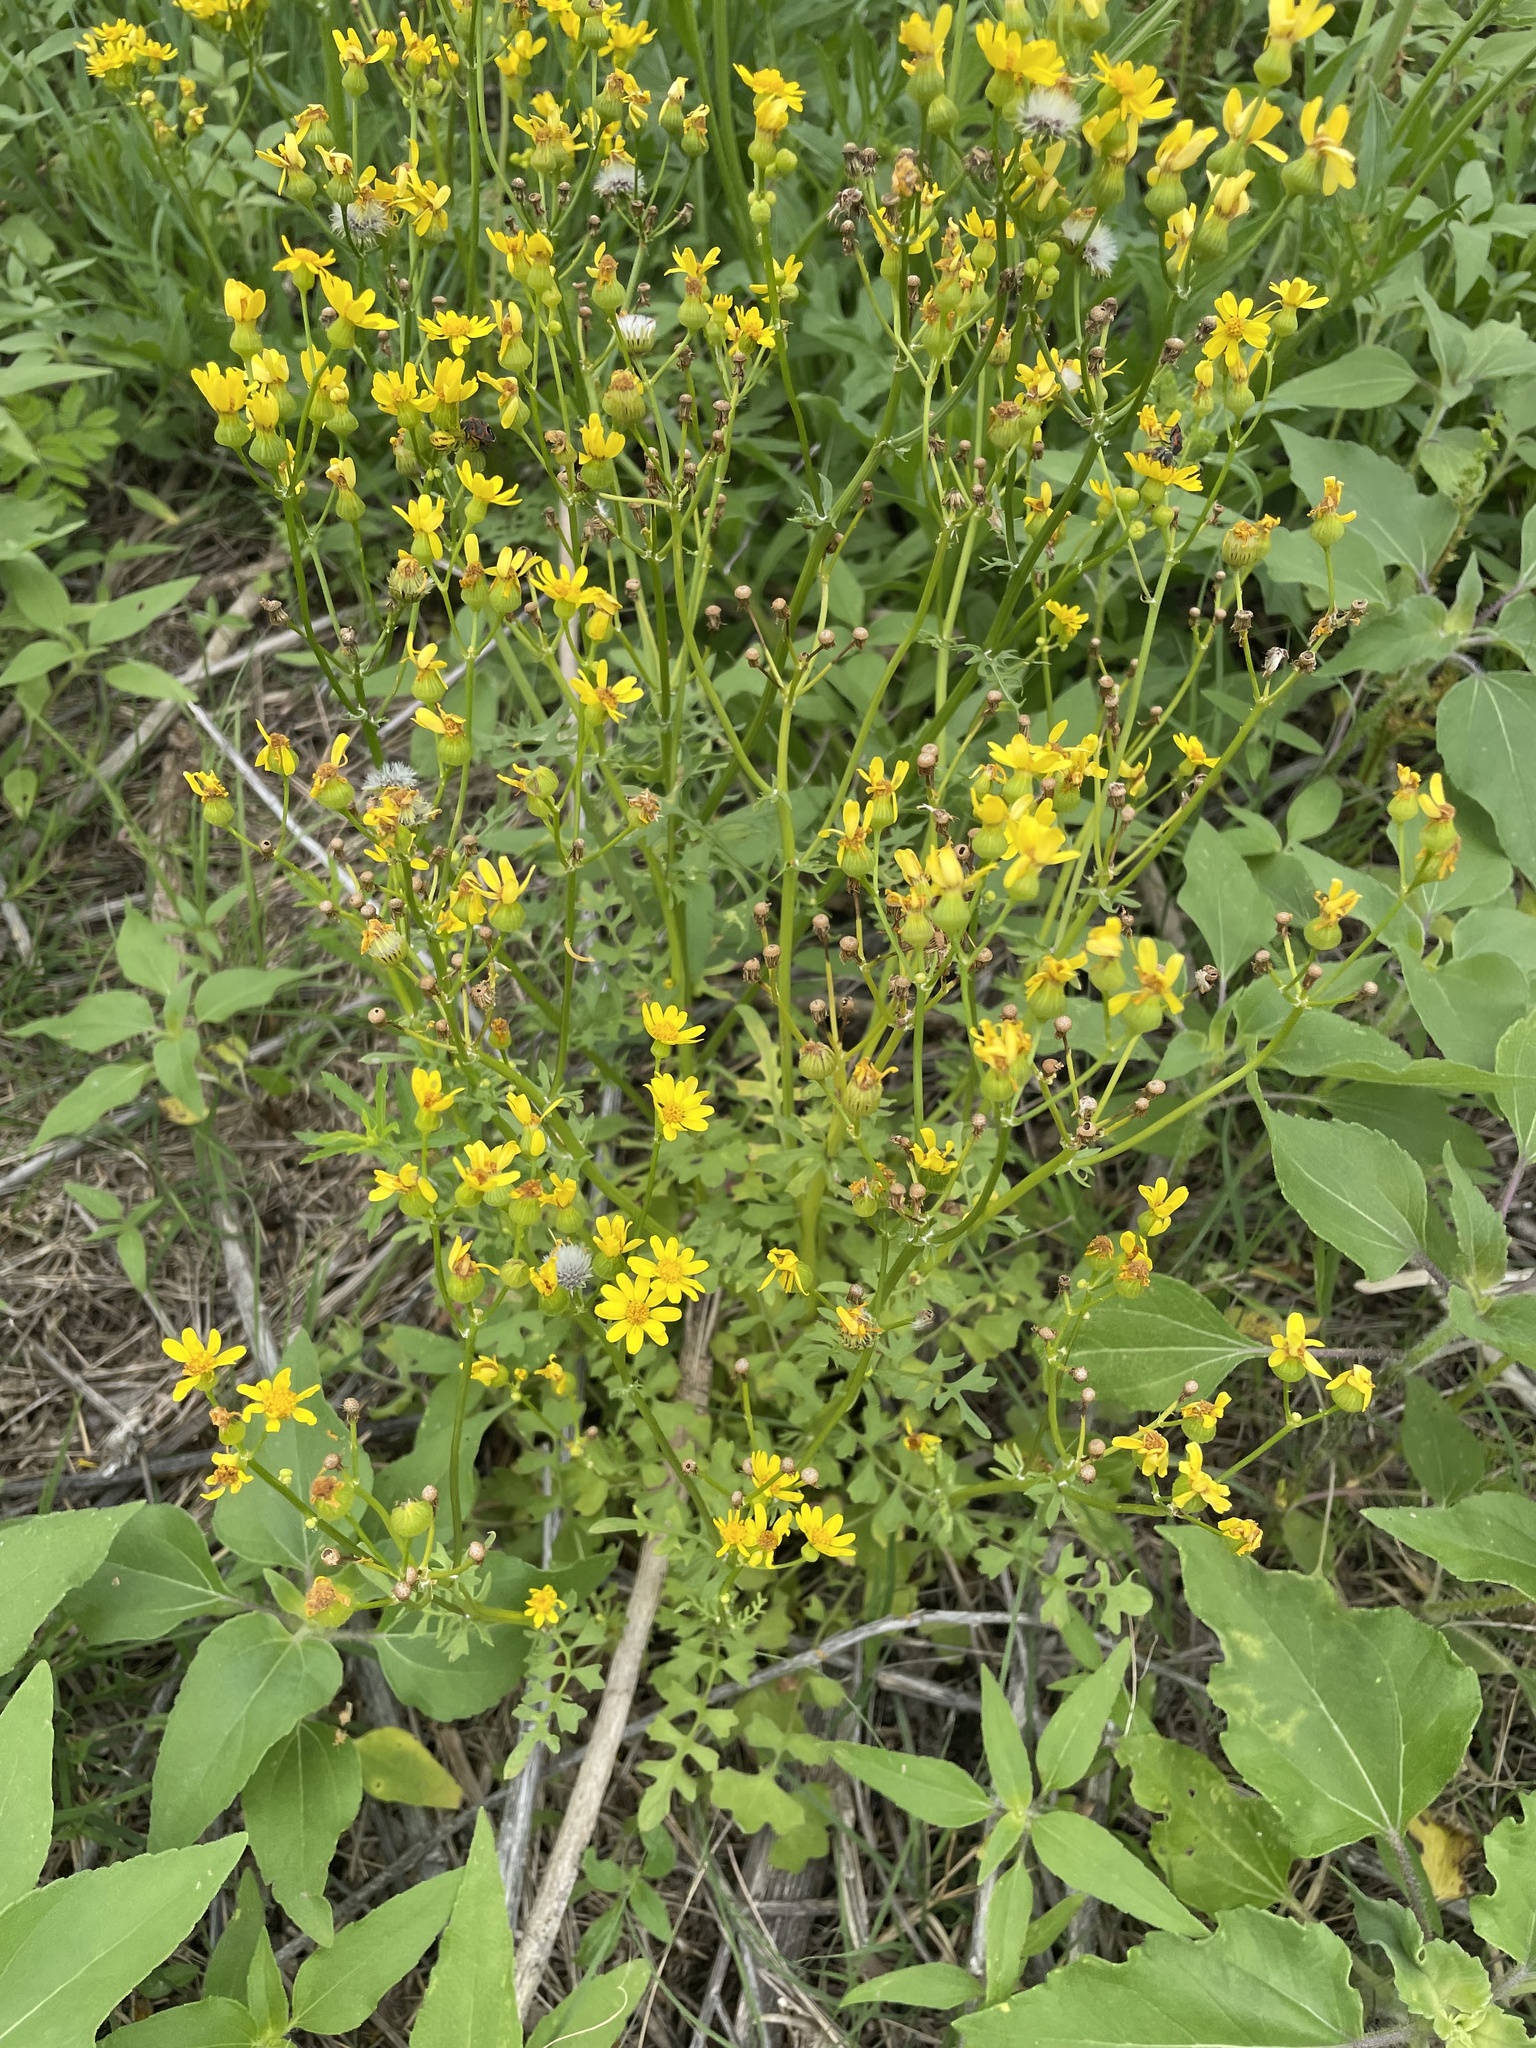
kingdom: Plantae
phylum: Tracheophyta
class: Magnoliopsida
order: Asterales
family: Asteraceae
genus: Packera
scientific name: Packera tampicana
